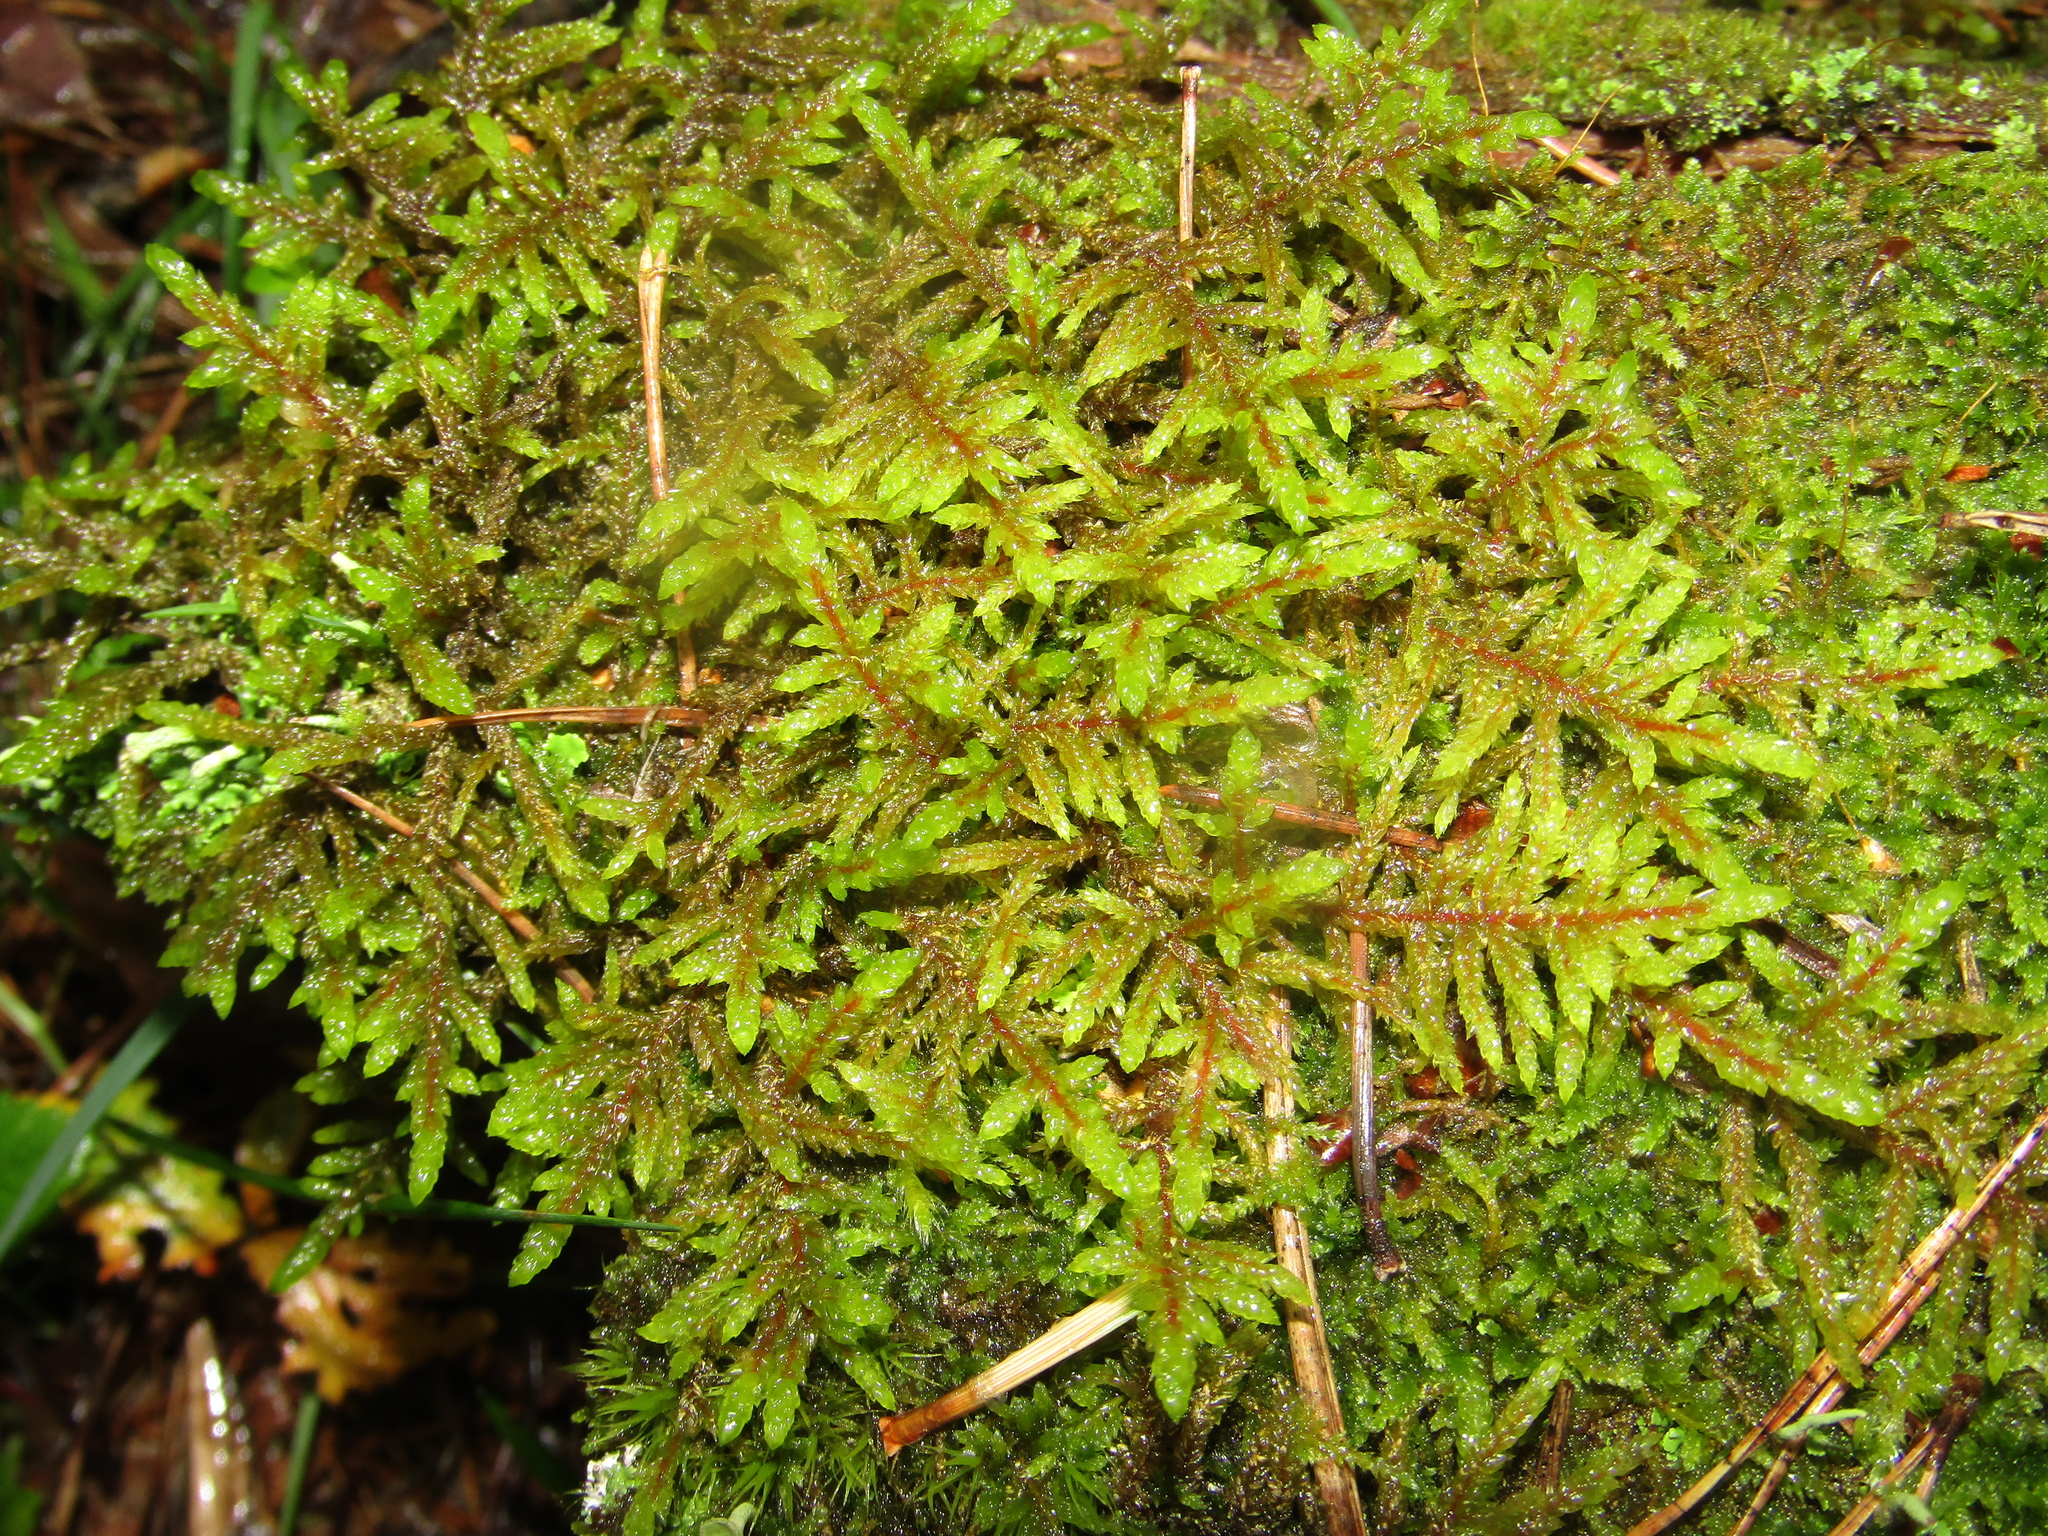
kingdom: Plantae
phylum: Bryophyta
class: Bryopsida
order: Hypnales
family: Hylocomiaceae
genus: Pleurozium
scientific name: Pleurozium schreberi
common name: Red-stemmed feather moss
